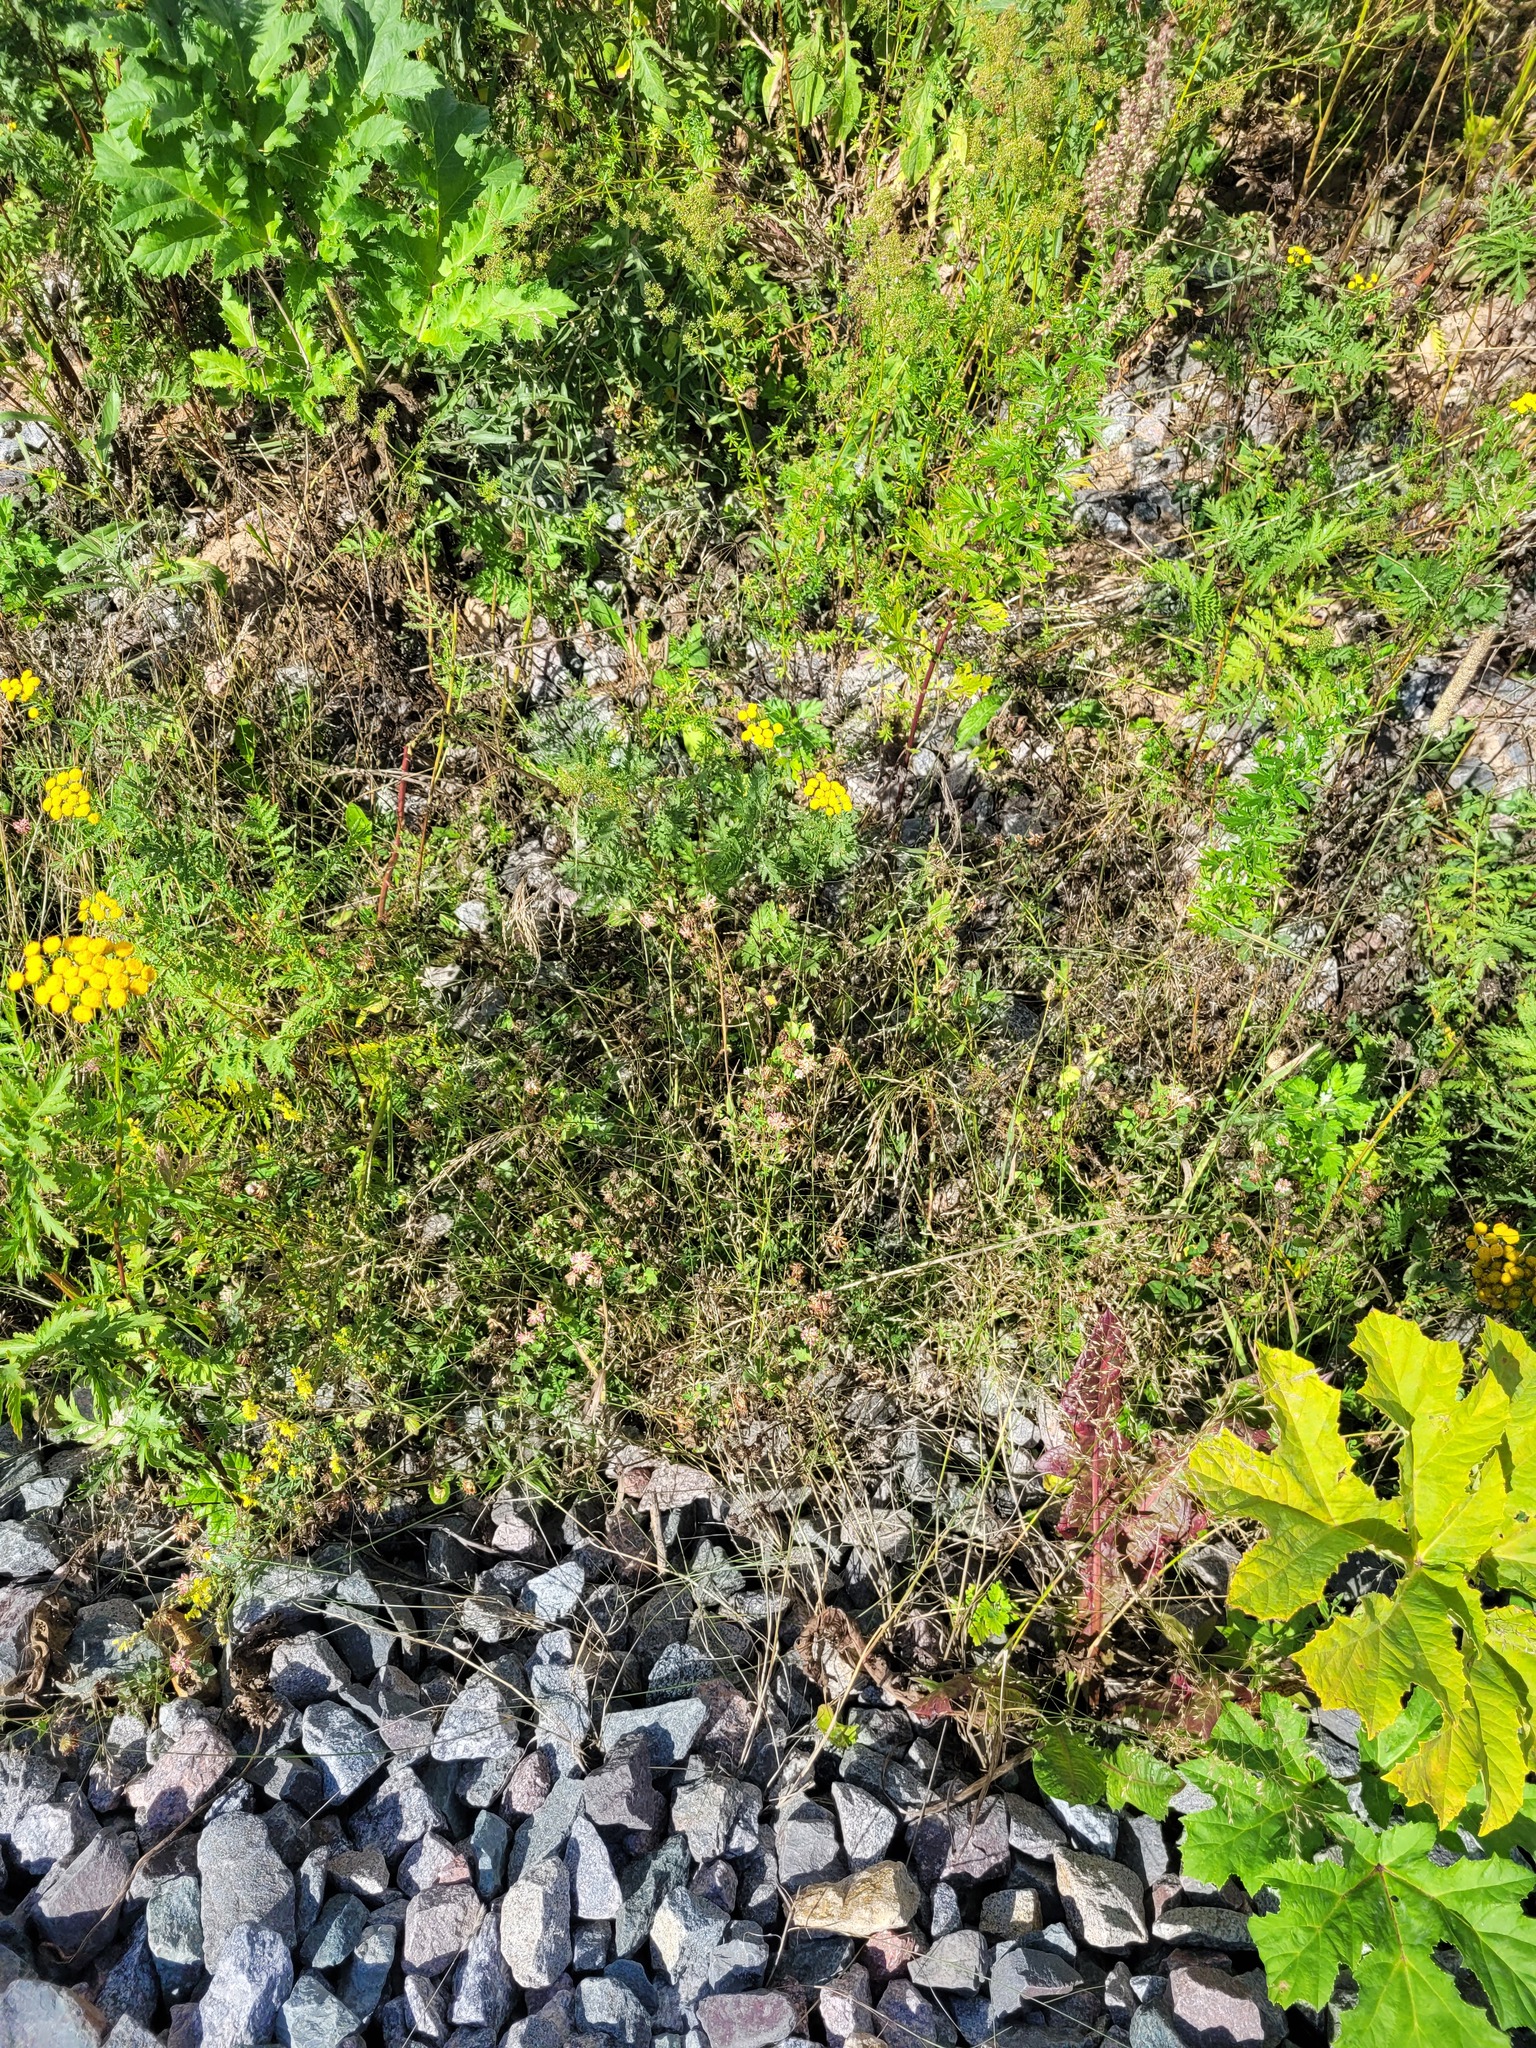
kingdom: Plantae
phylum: Tracheophyta
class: Magnoliopsida
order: Fabales
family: Fabaceae
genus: Trifolium
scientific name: Trifolium hybridum
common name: Alsike clover
